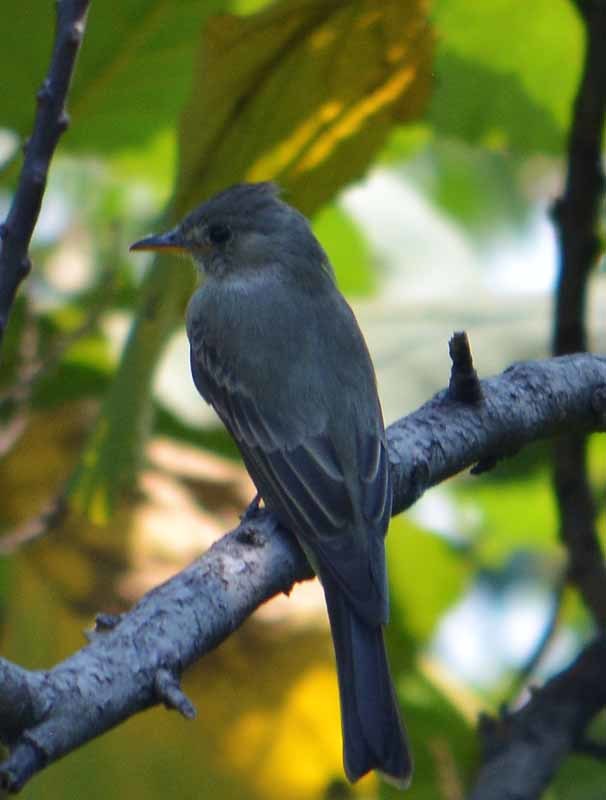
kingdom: Animalia
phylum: Chordata
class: Aves
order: Passeriformes
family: Tyrannidae
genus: Contopus
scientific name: Contopus pertinax
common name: Greater pewee
